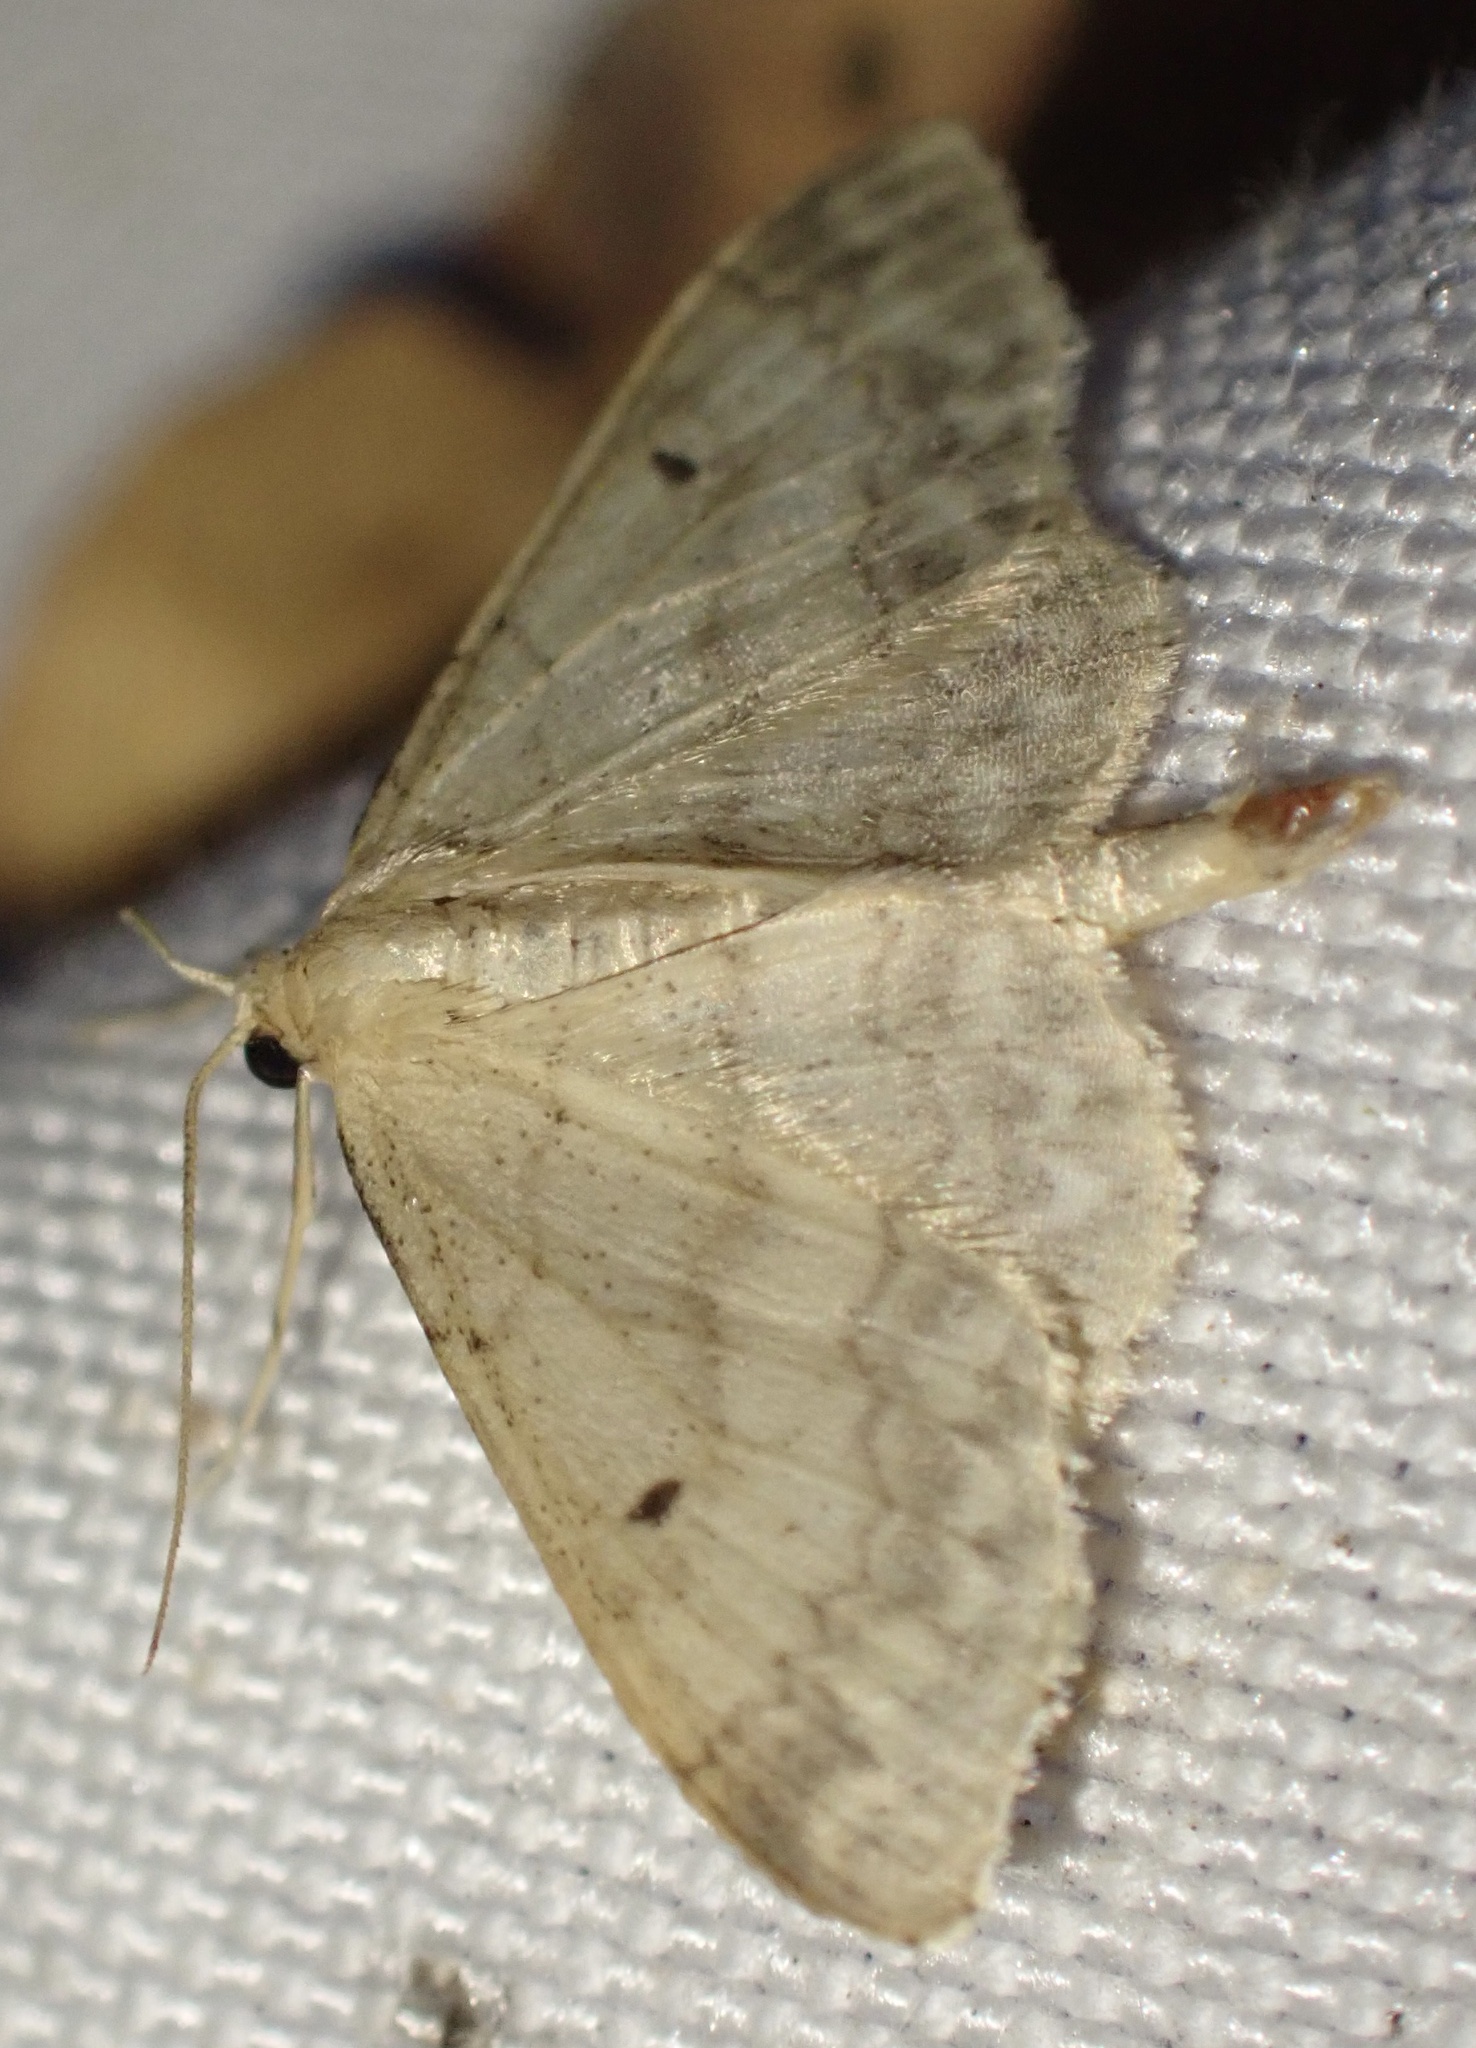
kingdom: Animalia
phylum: Arthropoda
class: Insecta
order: Lepidoptera
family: Geometridae
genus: Idaea
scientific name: Idaea biselata
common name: Small fan-footed wave
